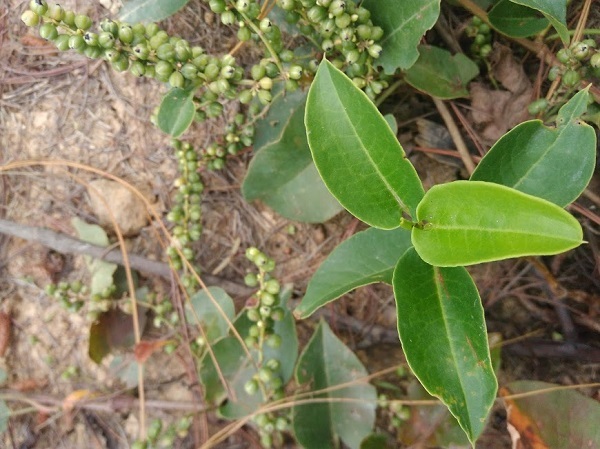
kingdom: Plantae
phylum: Tracheophyta
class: Magnoliopsida
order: Caryophyllales
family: Polygonaceae
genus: Muehlenbeckia
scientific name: Muehlenbeckia tamnifolia
